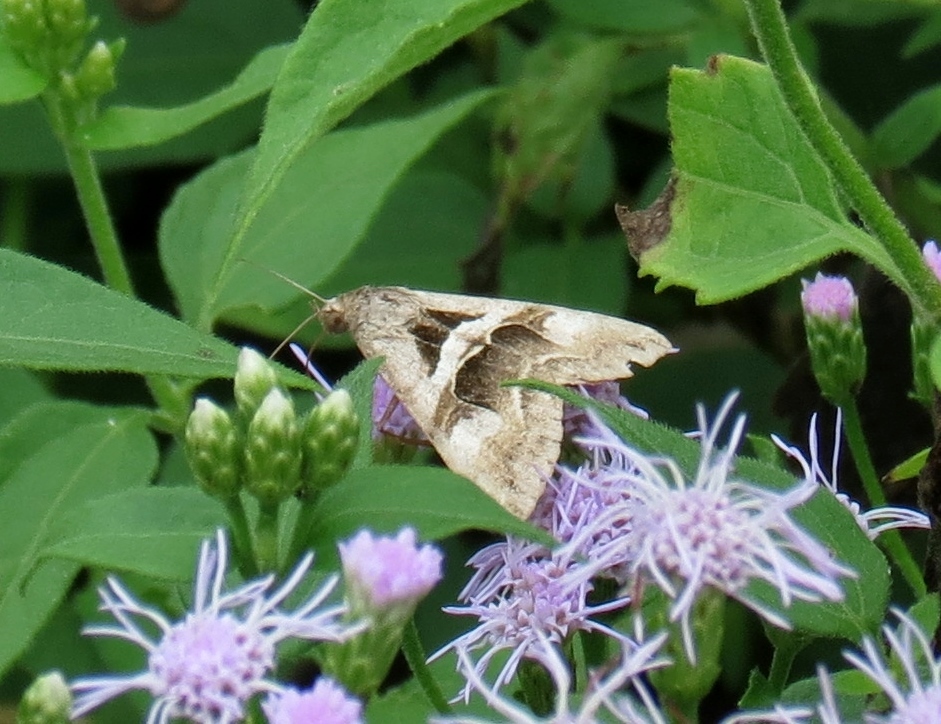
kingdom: Animalia
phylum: Arthropoda
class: Insecta
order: Lepidoptera
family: Erebidae
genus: Melipotis
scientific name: Melipotis cellaris
